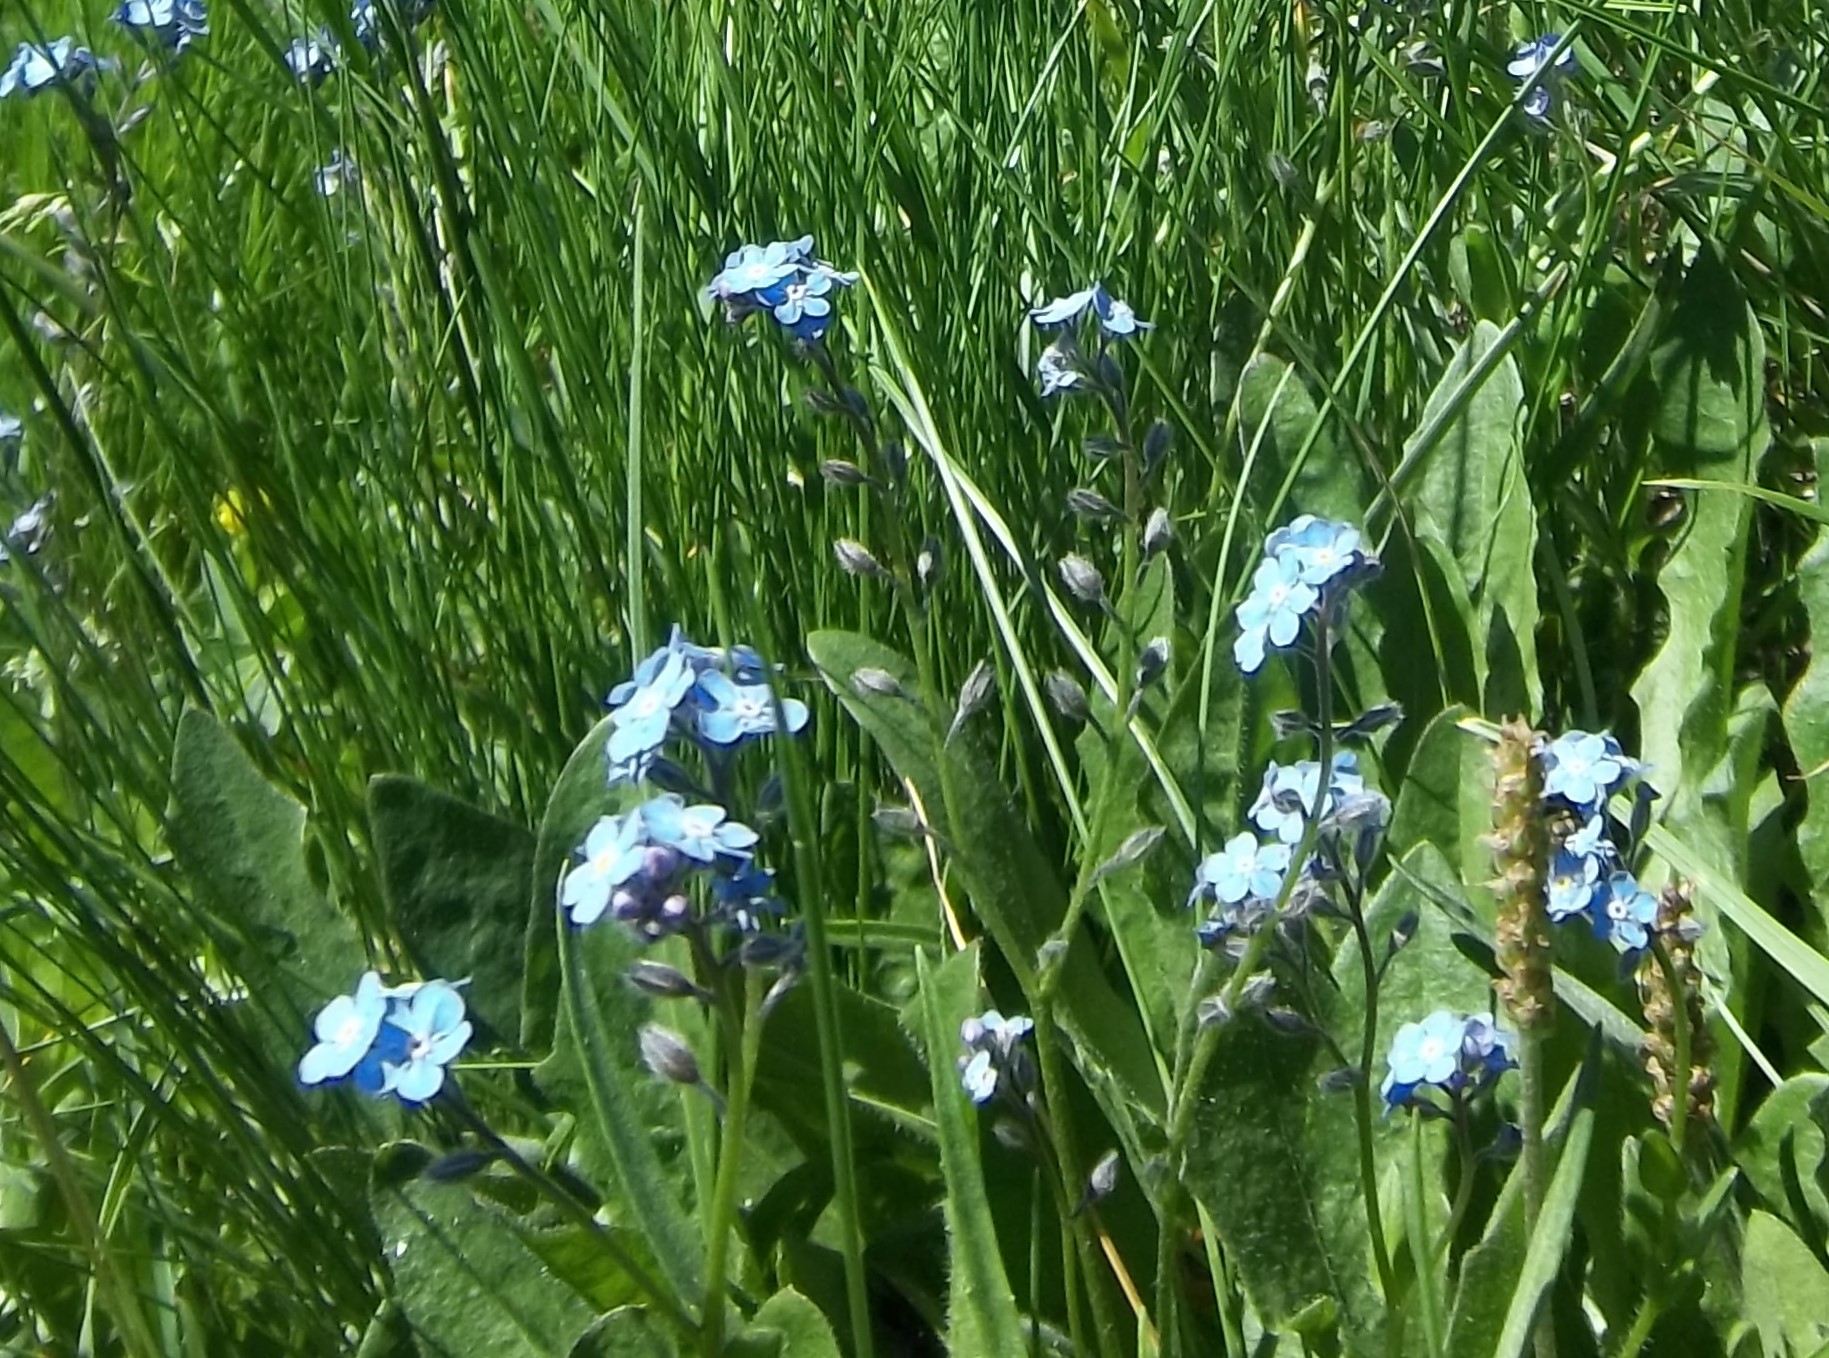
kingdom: Plantae
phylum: Tracheophyta
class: Magnoliopsida
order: Boraginales
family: Boraginaceae
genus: Myosotis
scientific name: Myosotis alpestris
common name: Alpine forget-me-not
